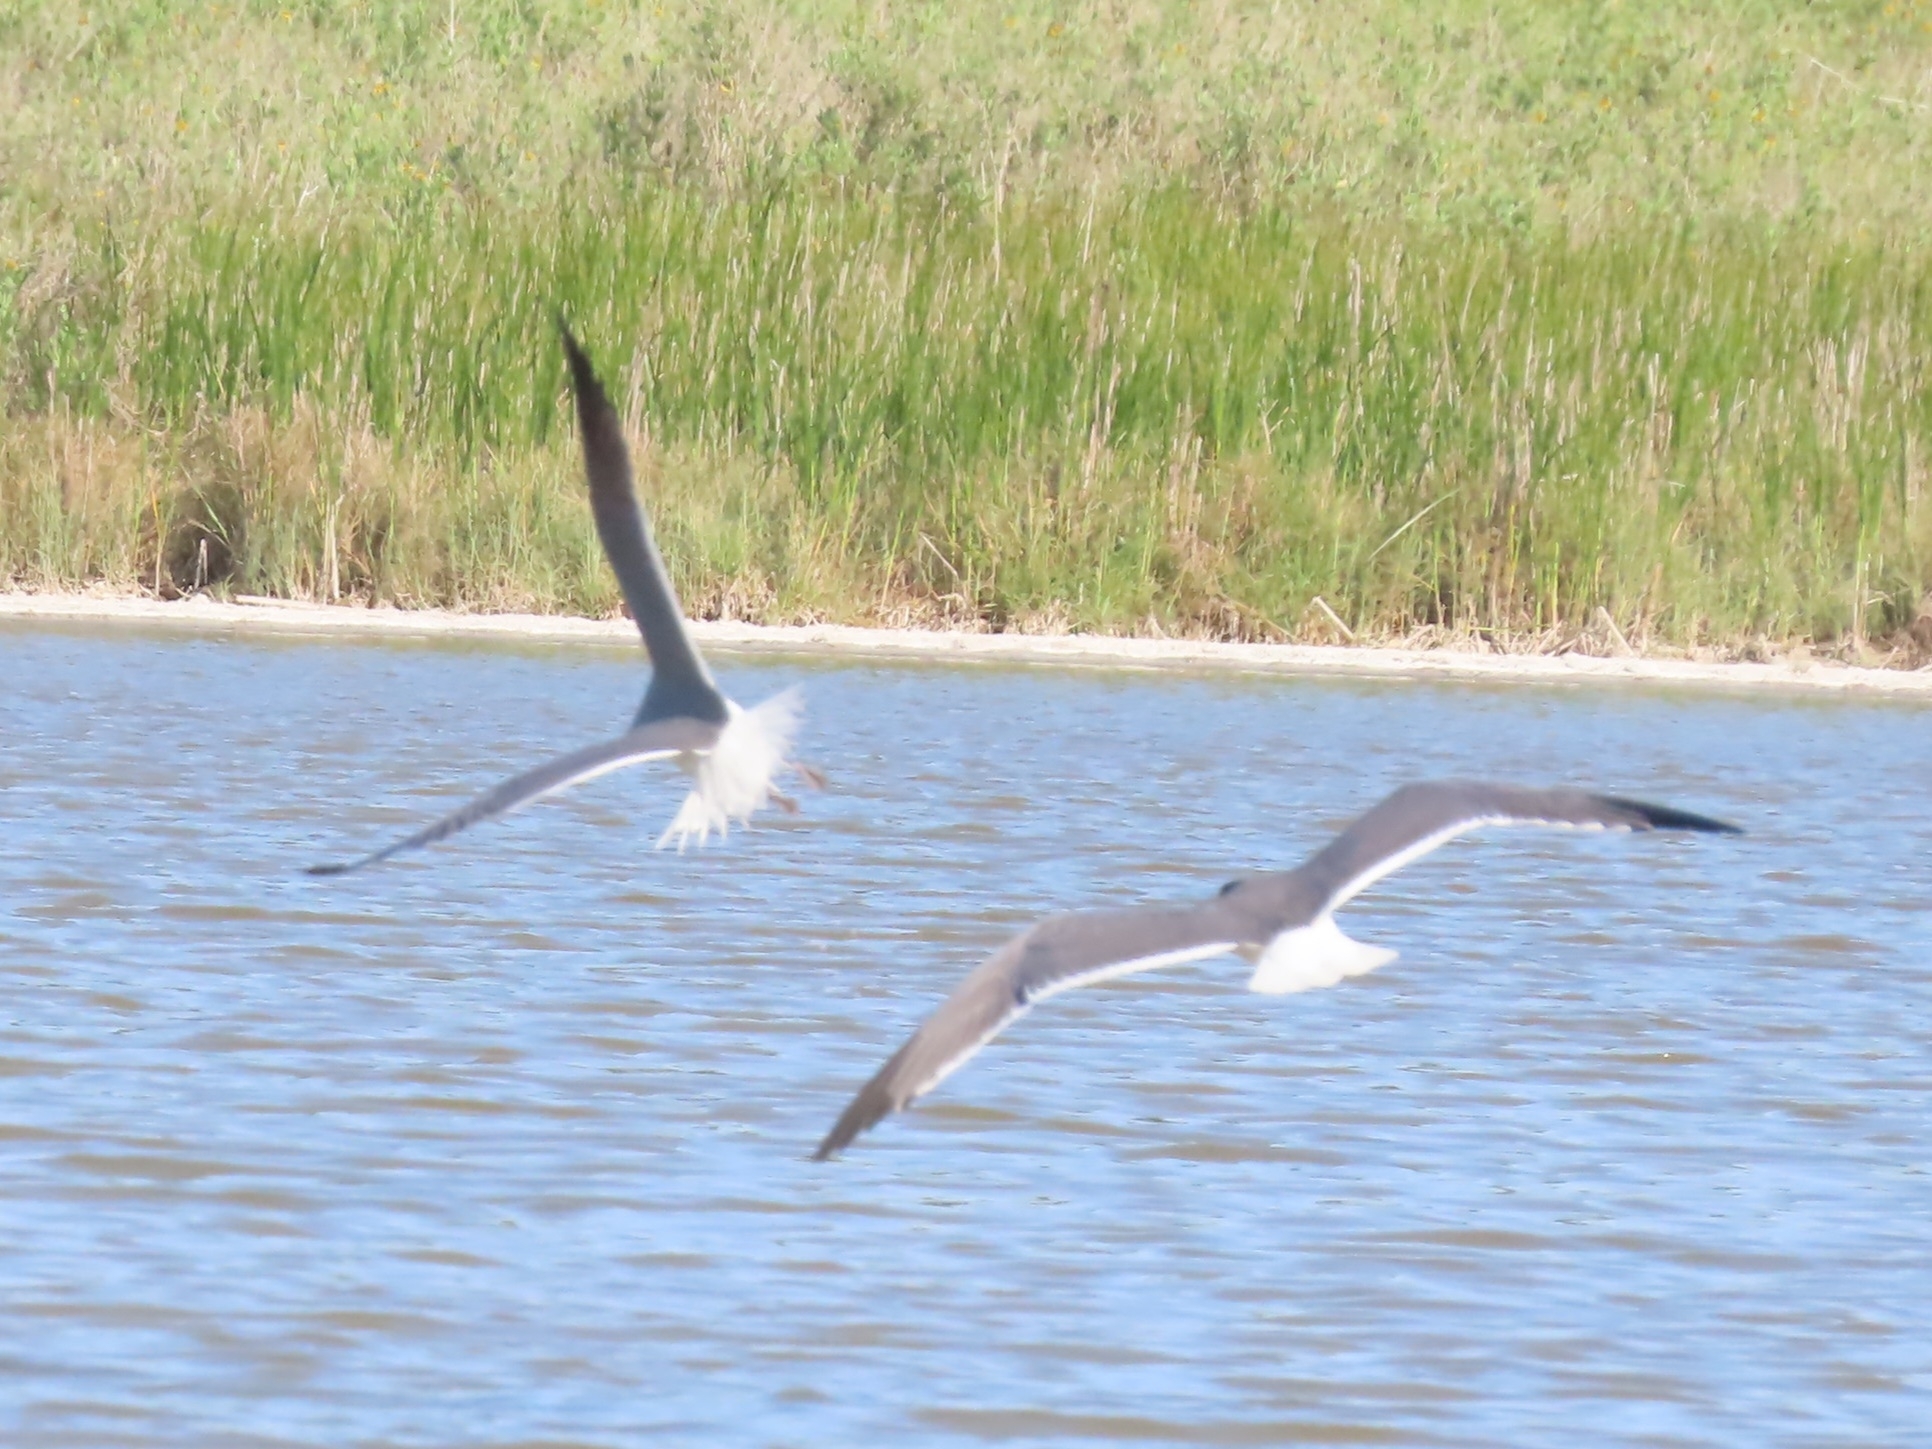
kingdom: Animalia
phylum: Chordata
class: Aves
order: Charadriiformes
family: Laridae
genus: Leucophaeus
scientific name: Leucophaeus atricilla
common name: Laughing gull
